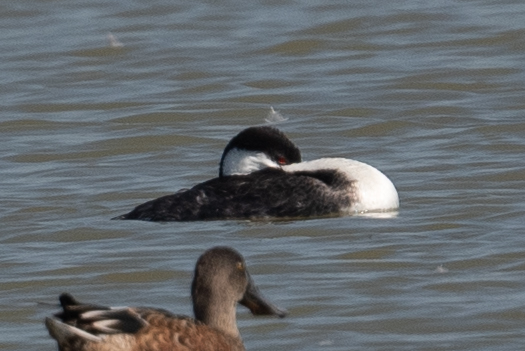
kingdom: Animalia
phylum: Chordata
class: Aves
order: Podicipediformes
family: Podicipedidae
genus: Aechmophorus
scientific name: Aechmophorus clarkii
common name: Clark's grebe
